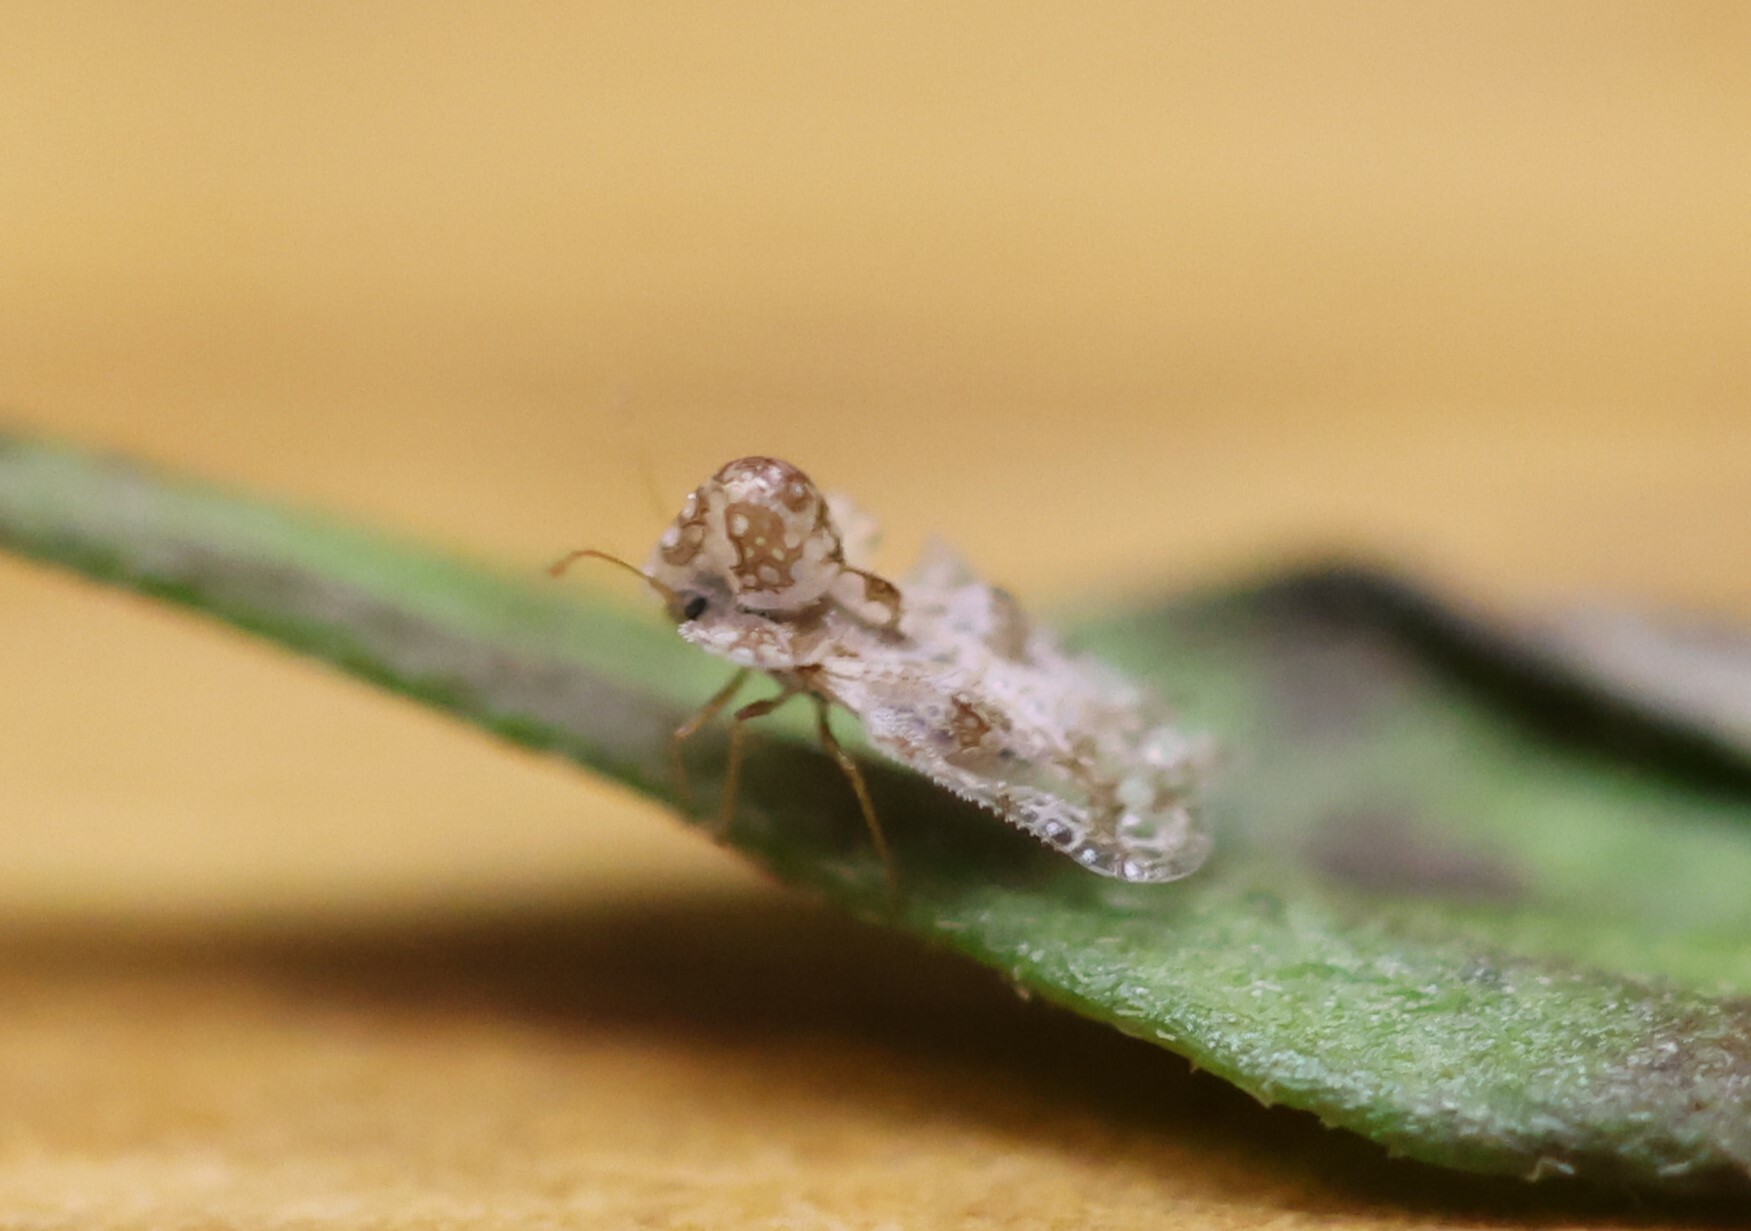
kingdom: Animalia
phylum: Arthropoda
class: Insecta
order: Hemiptera
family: Tingidae
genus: Corythucha
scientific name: Corythucha morrilli
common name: Morrill lace bug
